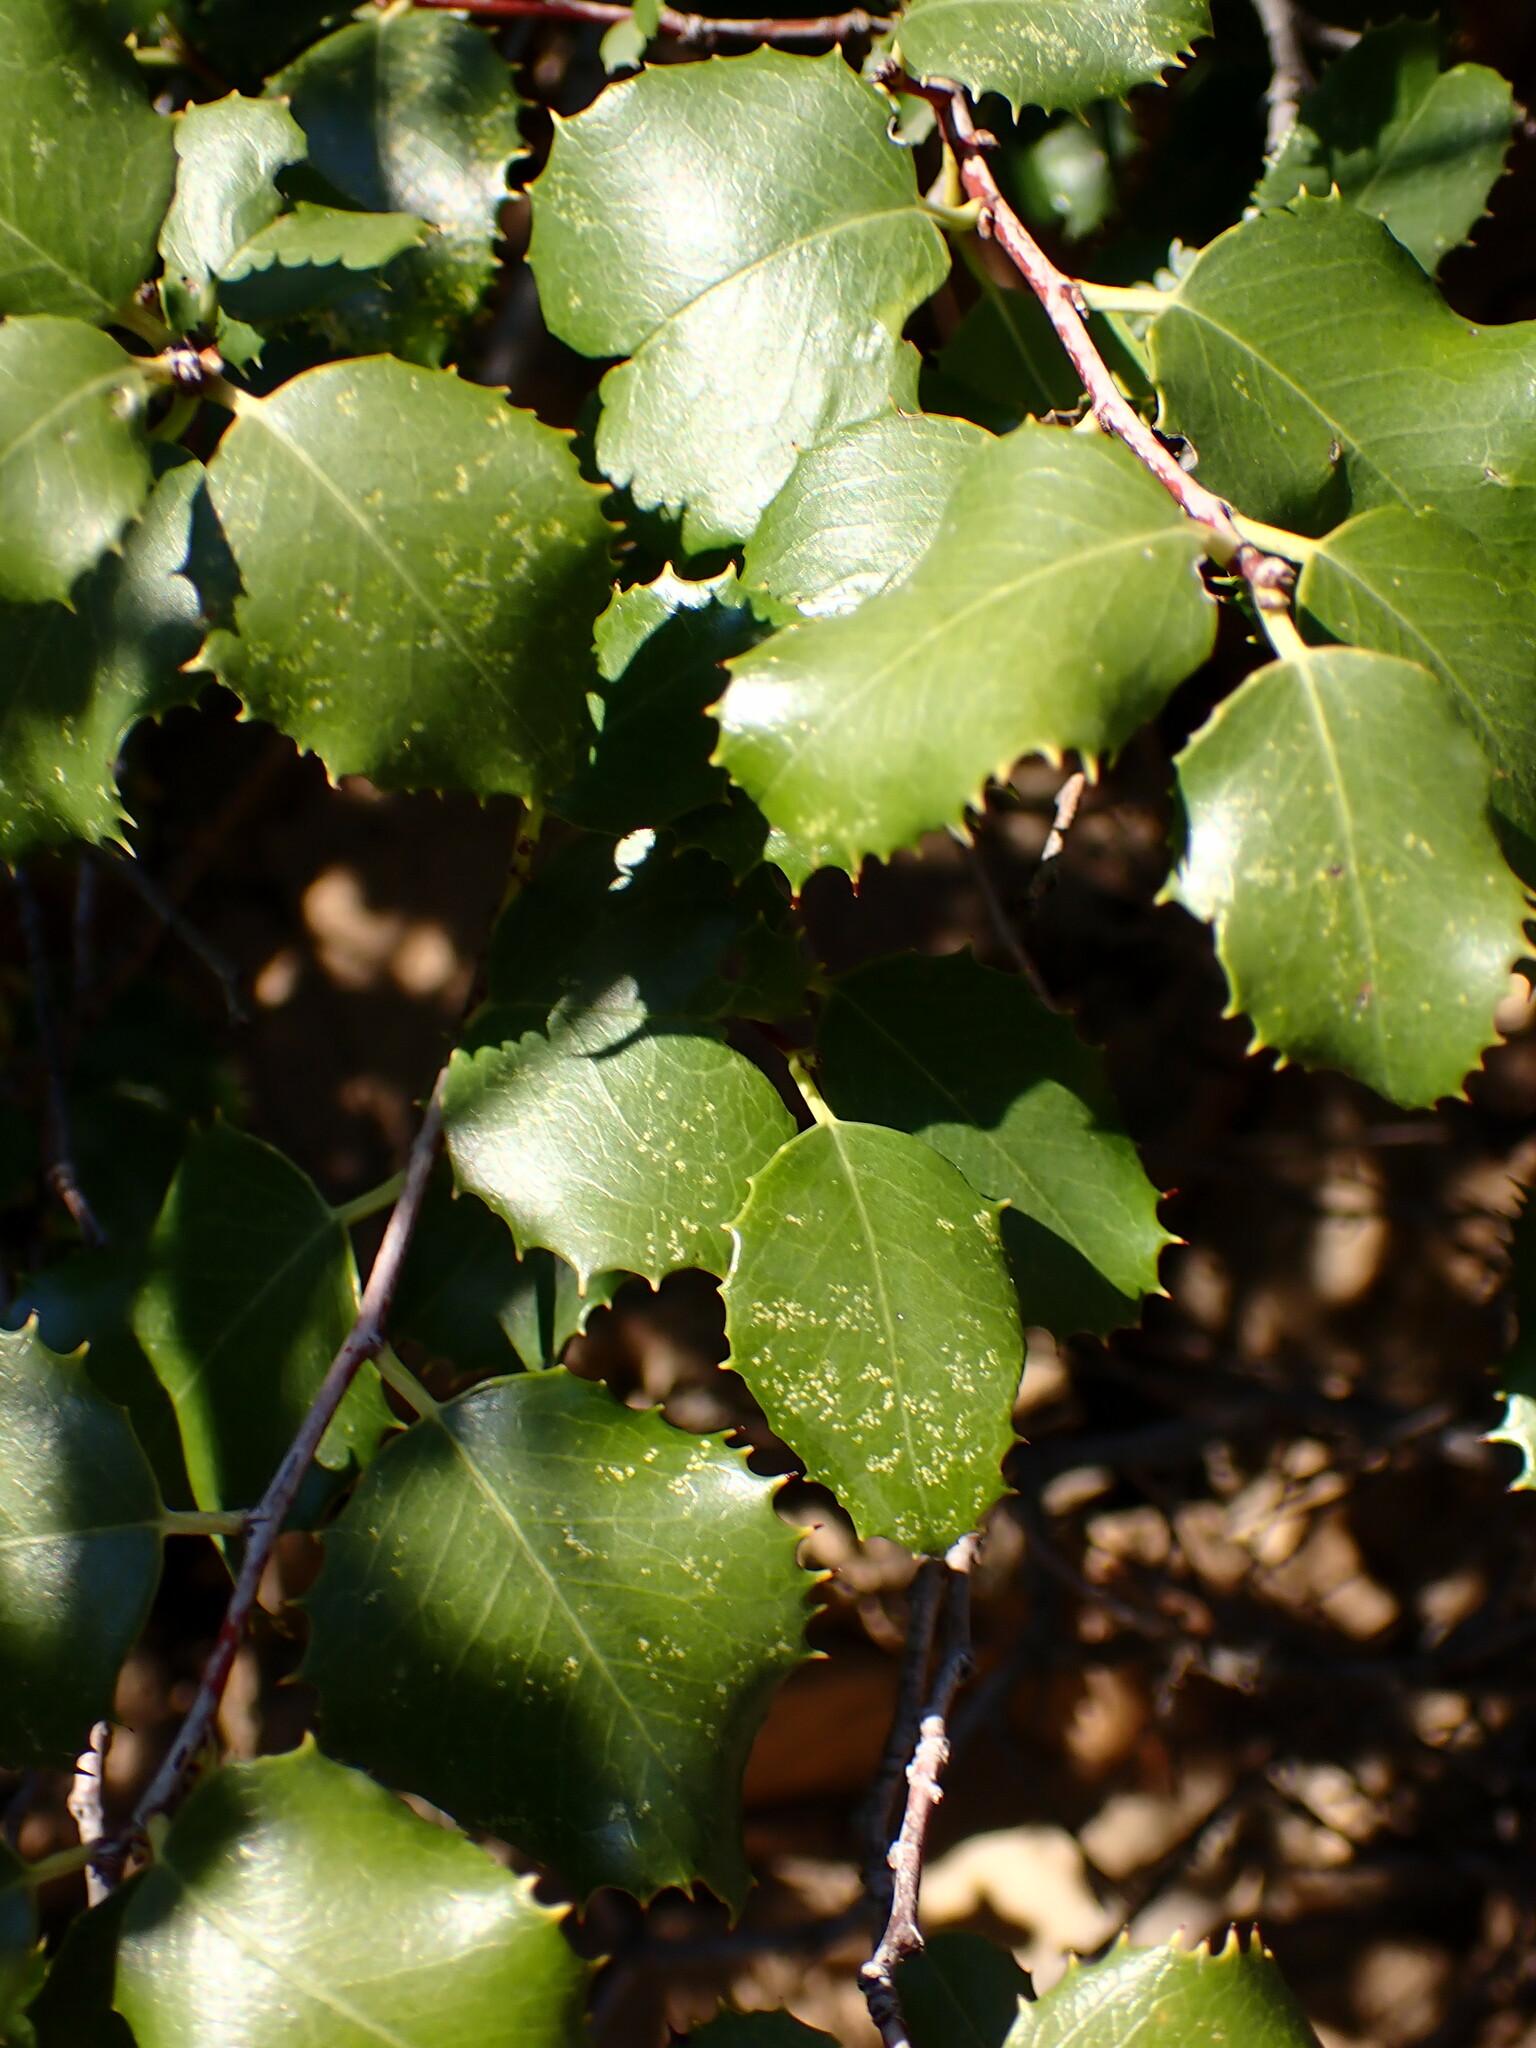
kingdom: Plantae
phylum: Tracheophyta
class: Magnoliopsida
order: Rosales
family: Rosaceae
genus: Prunus
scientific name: Prunus ilicifolia
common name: Hollyleaf cherry
